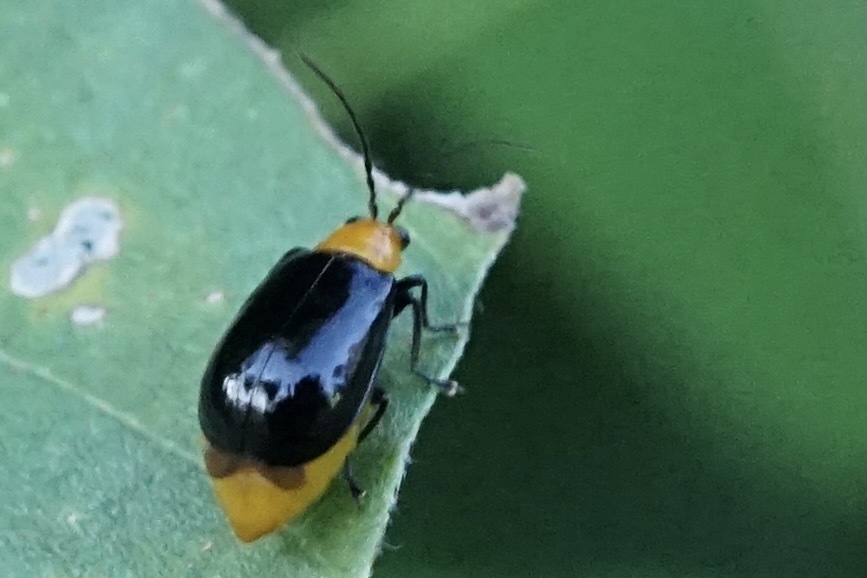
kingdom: Animalia
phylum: Arthropoda
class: Insecta
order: Coleoptera
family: Chrysomelidae
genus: Aulacophora
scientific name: Aulacophora nigripennis
